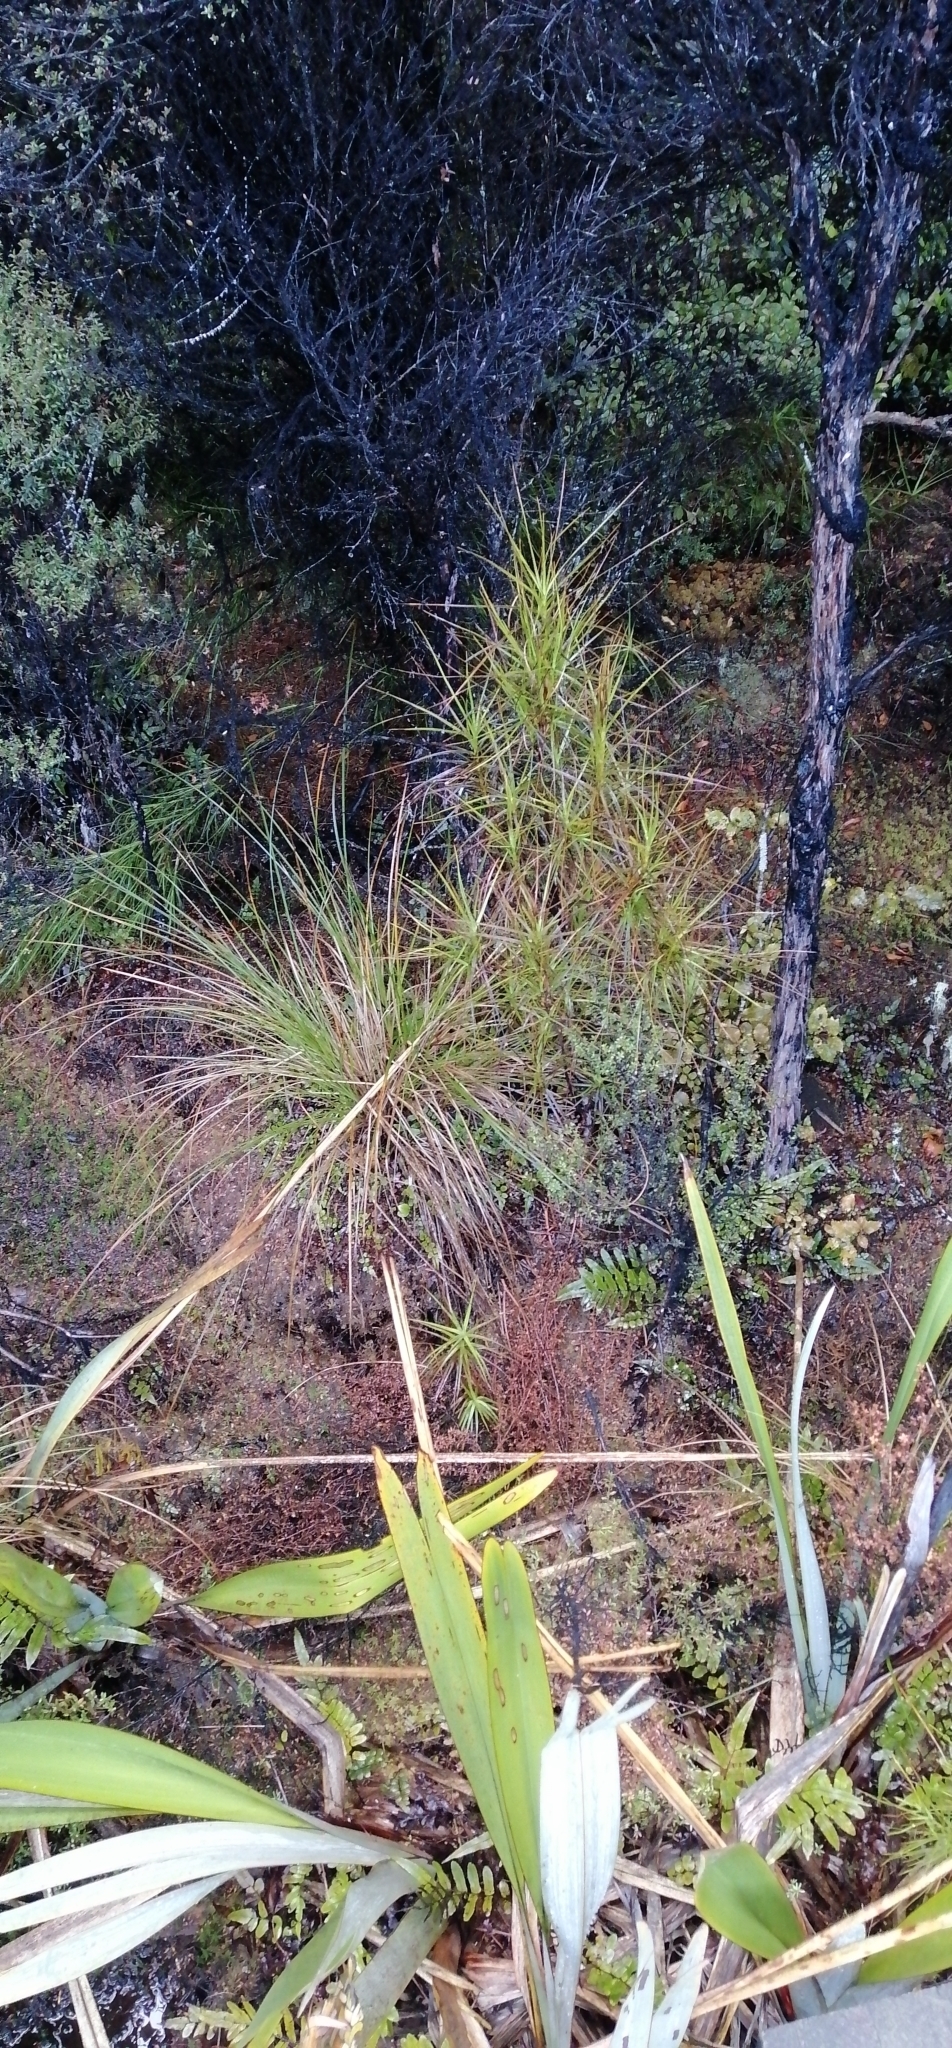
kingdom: Plantae
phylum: Tracheophyta
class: Magnoliopsida
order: Ericales
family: Ericaceae
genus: Dracophyllum
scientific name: Dracophyllum longifolium
